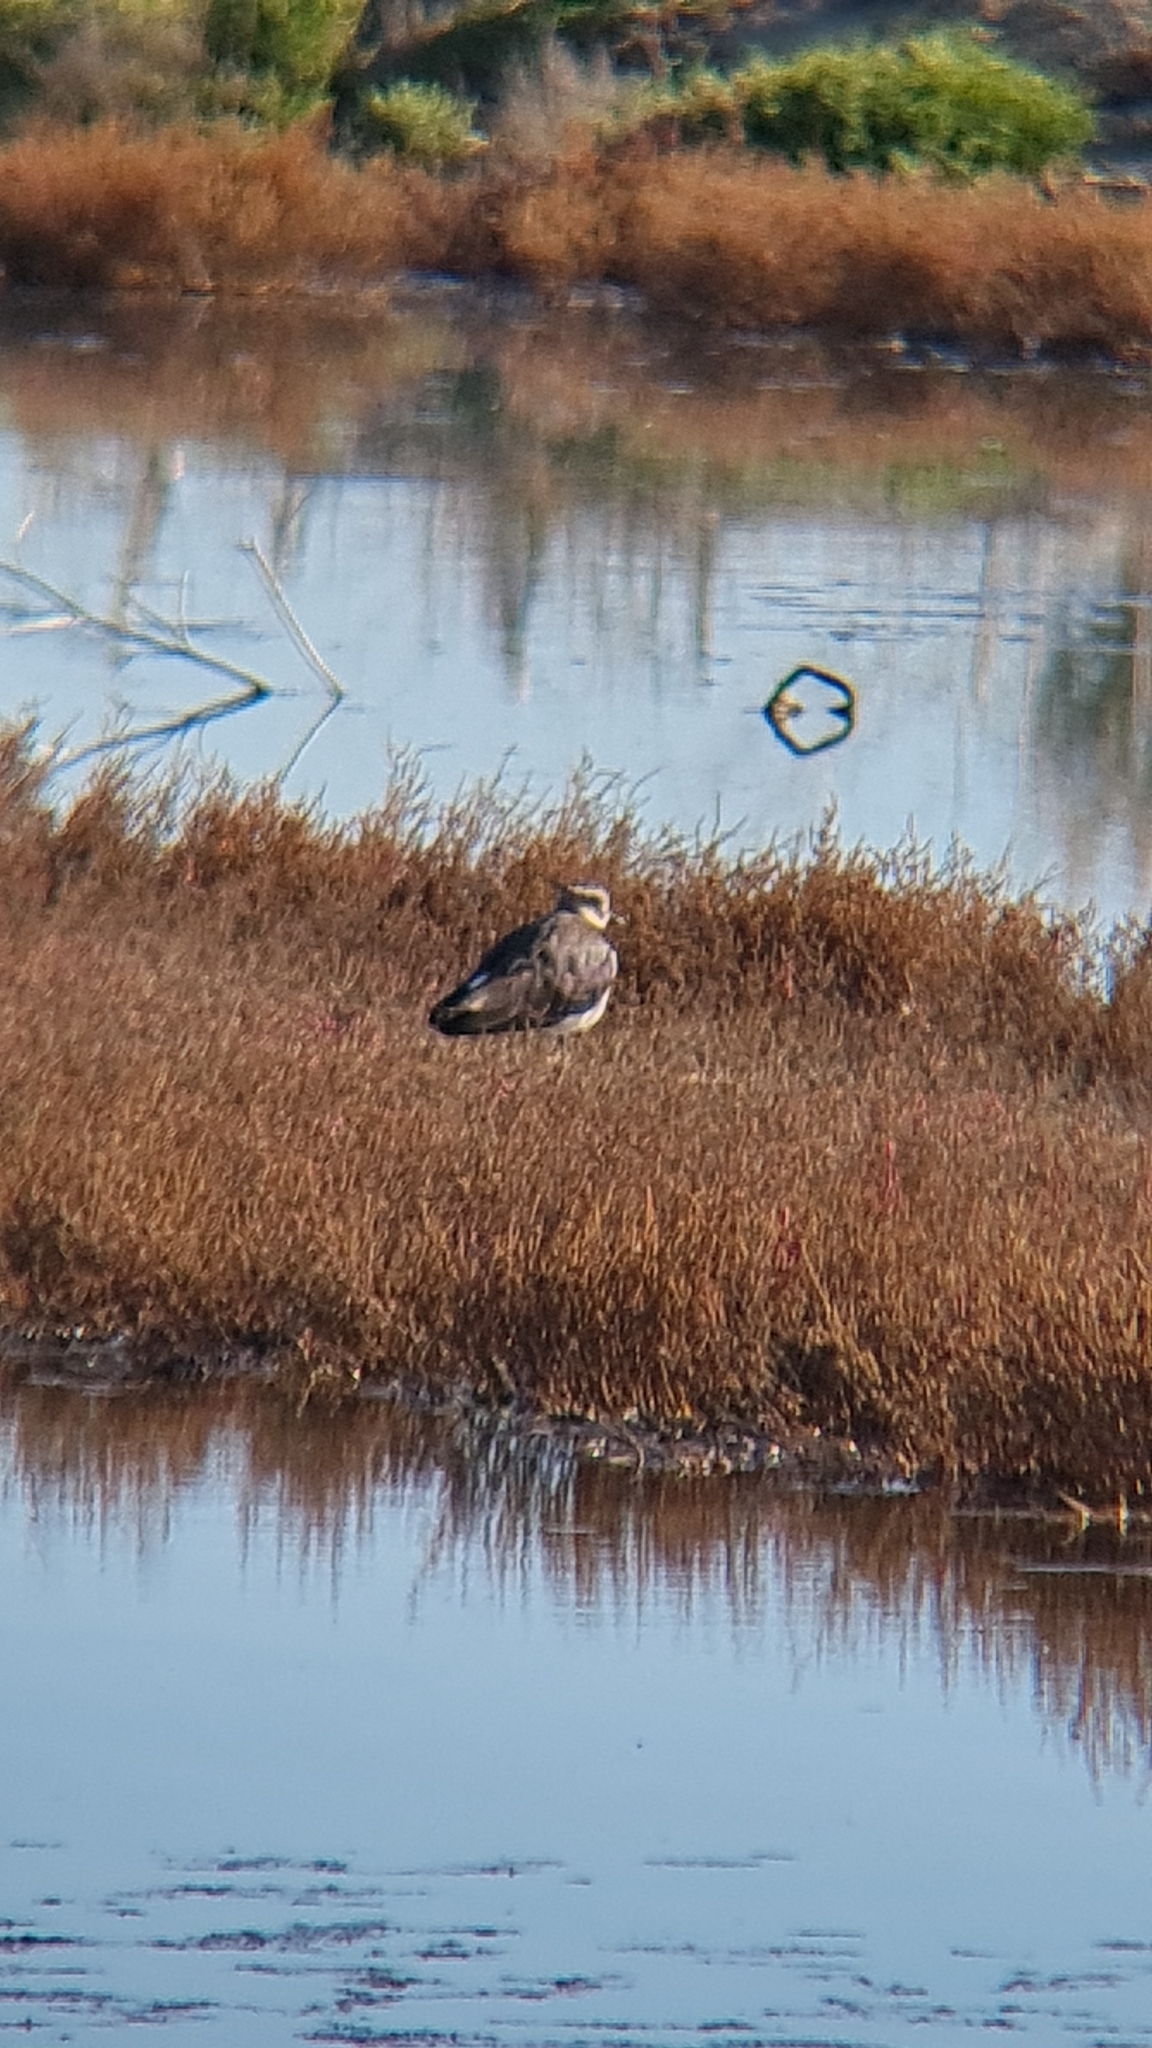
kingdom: Animalia
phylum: Chordata
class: Aves
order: Charadriiformes
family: Charadriidae
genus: Vanellus
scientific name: Vanellus vanellus
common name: Northern lapwing
